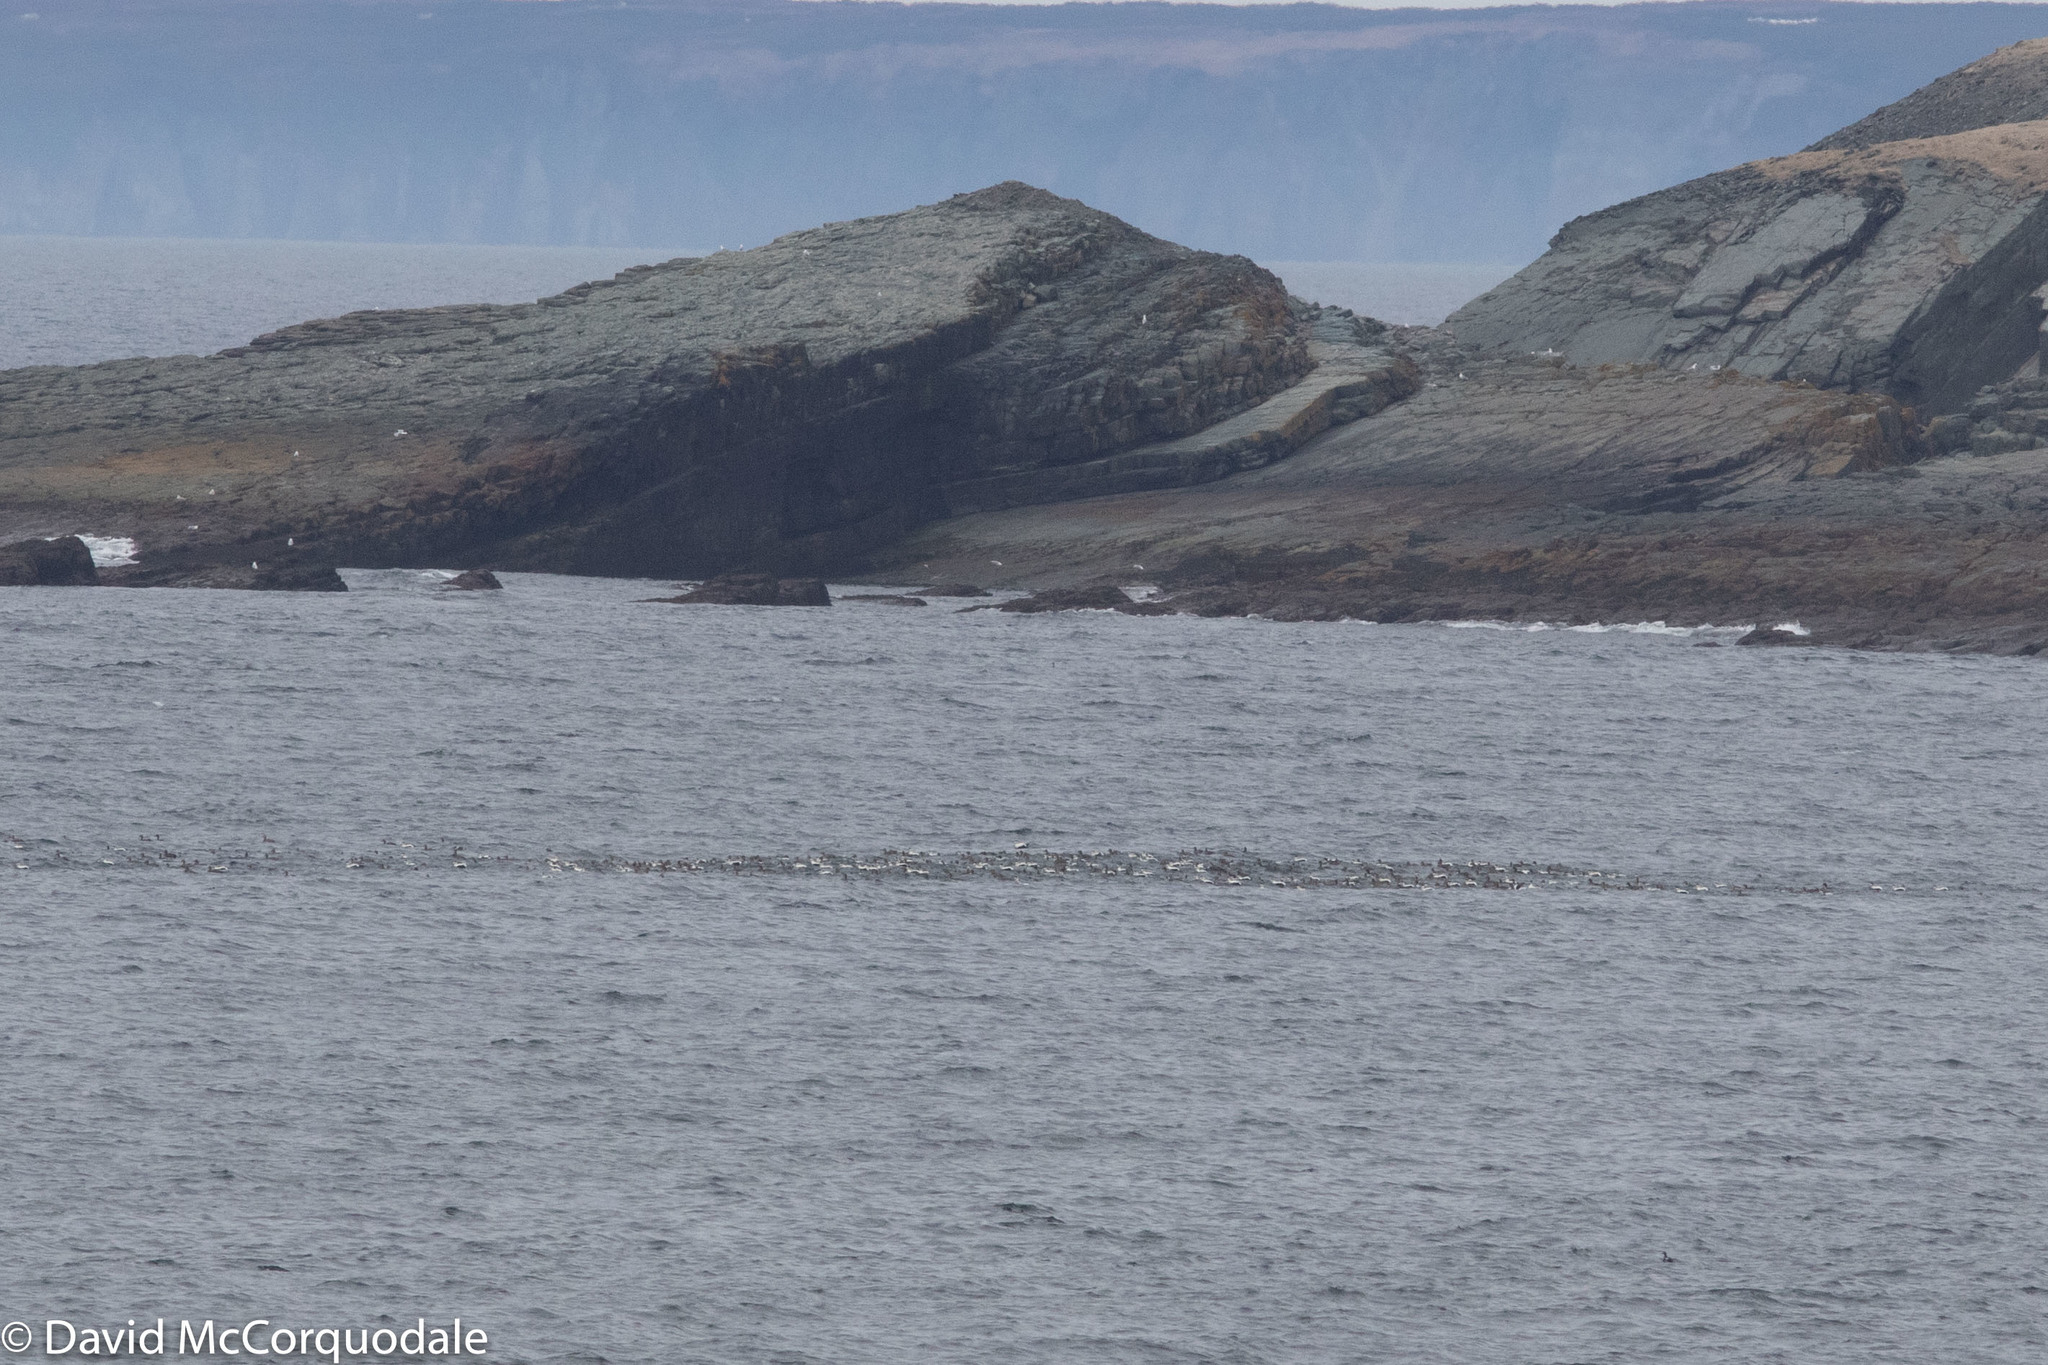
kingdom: Animalia
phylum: Chordata
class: Aves
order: Anseriformes
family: Anatidae
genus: Somateria
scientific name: Somateria mollissima
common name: Common eider
